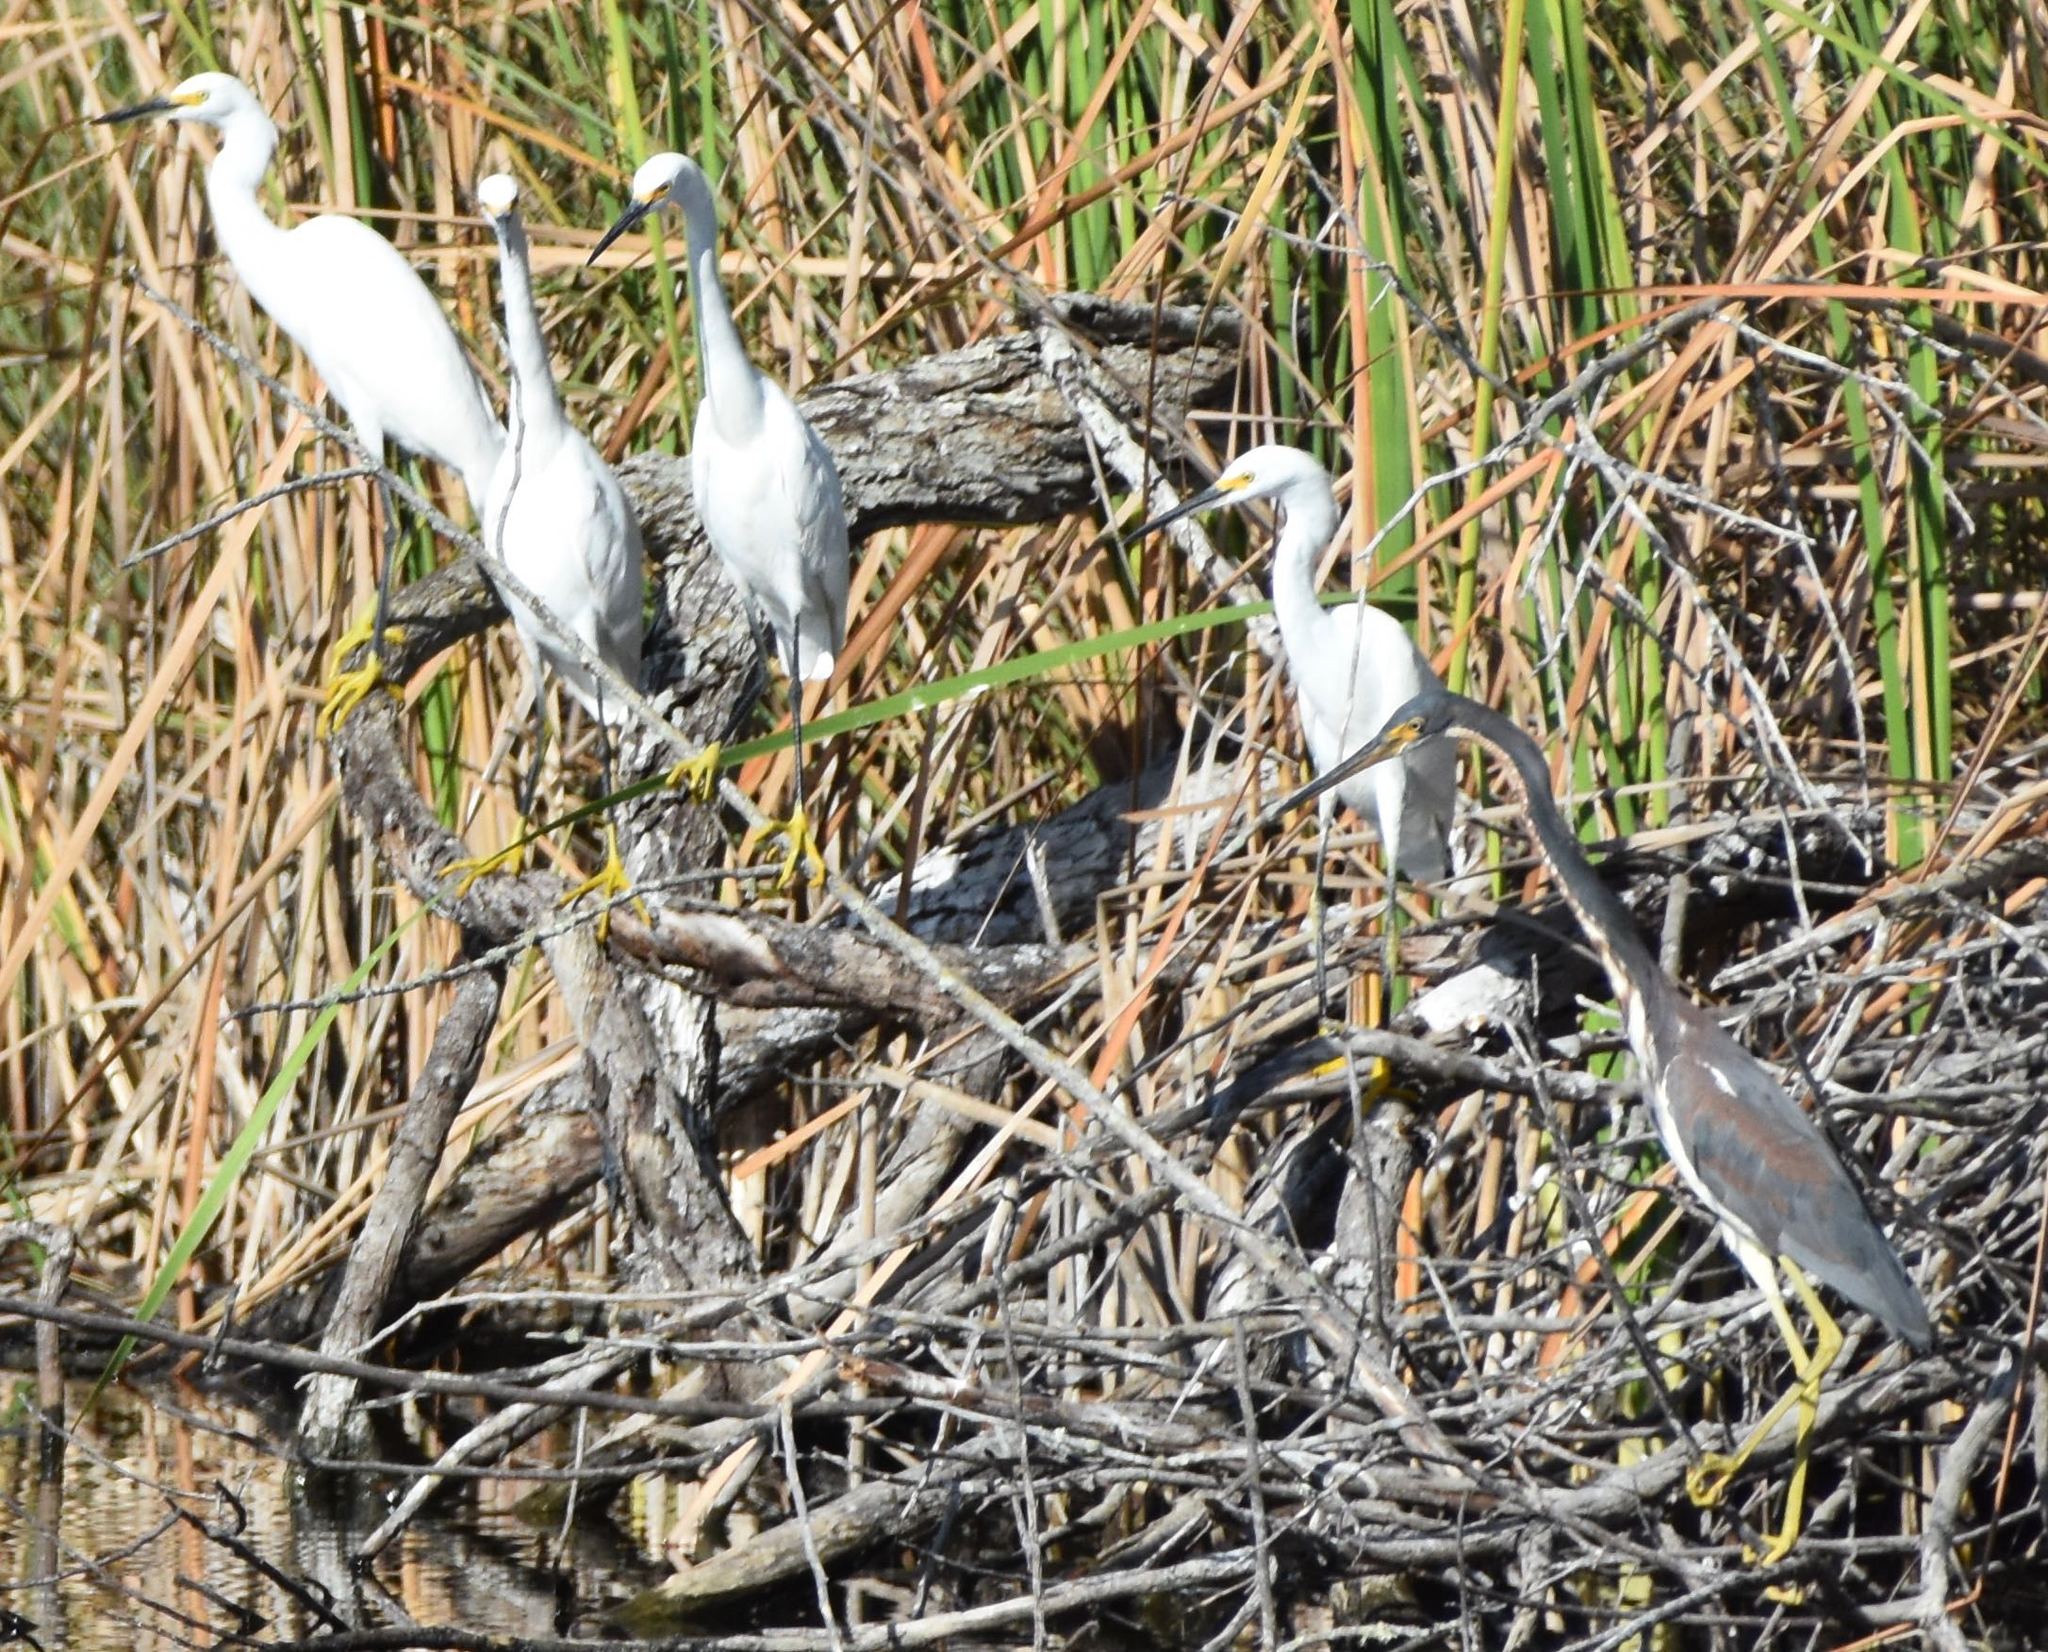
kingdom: Animalia
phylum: Chordata
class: Aves
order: Pelecaniformes
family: Ardeidae
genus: Egretta
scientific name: Egretta tricolor
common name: Tricolored heron
